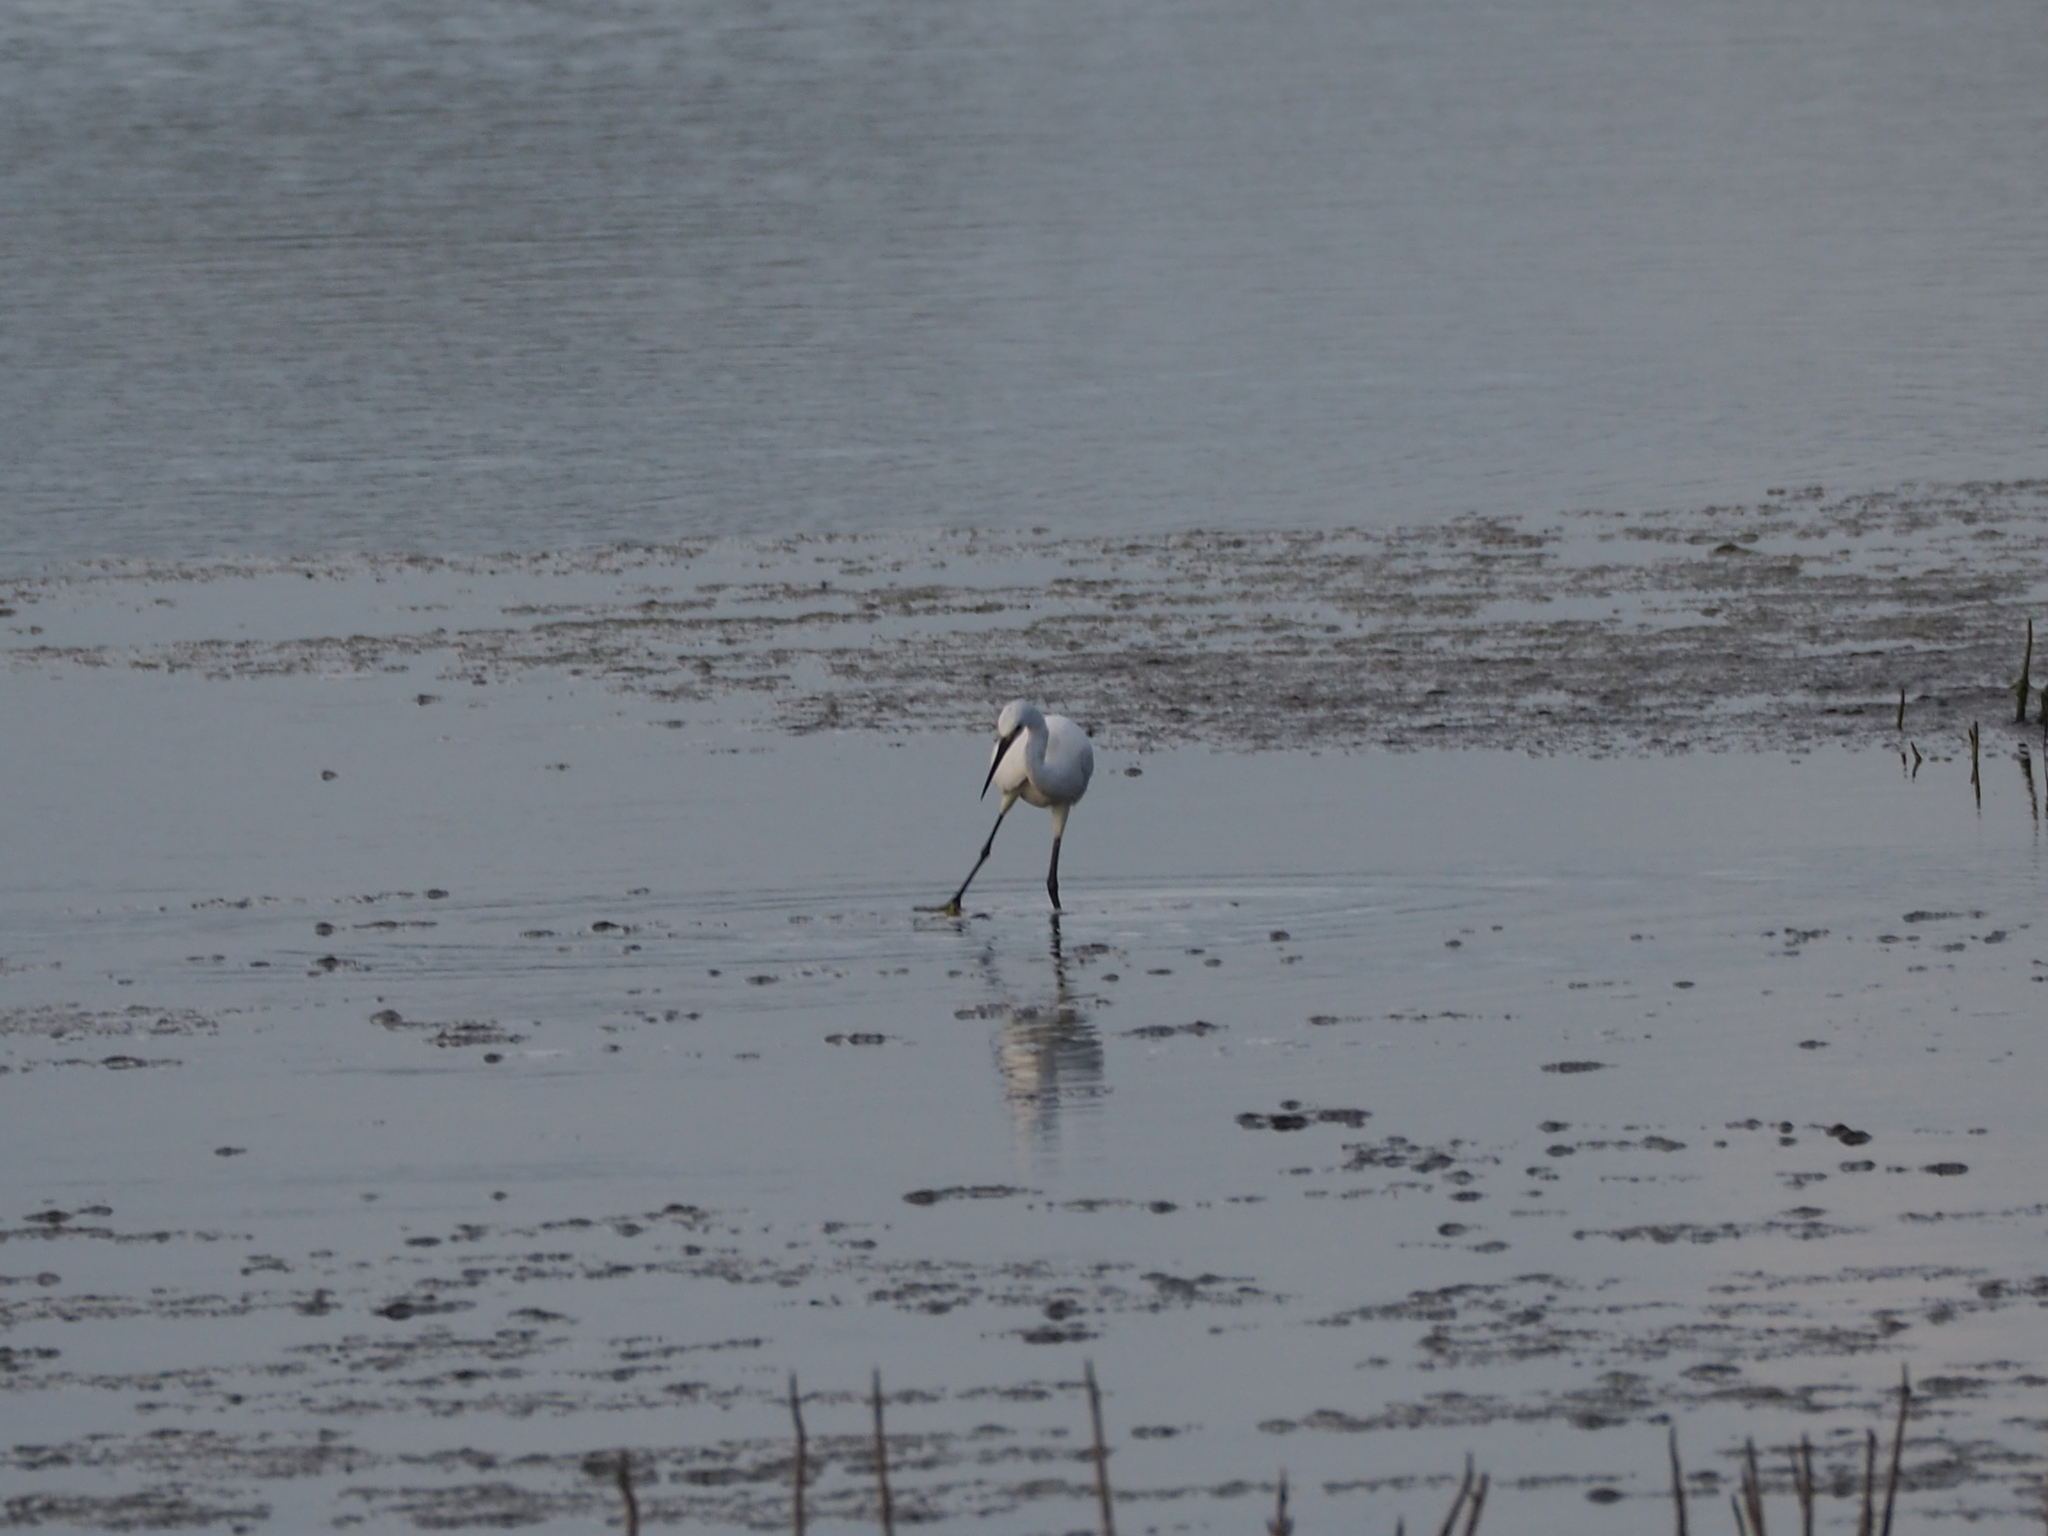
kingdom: Animalia
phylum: Chordata
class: Aves
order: Pelecaniformes
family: Ardeidae
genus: Egretta
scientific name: Egretta garzetta
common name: Little egret
